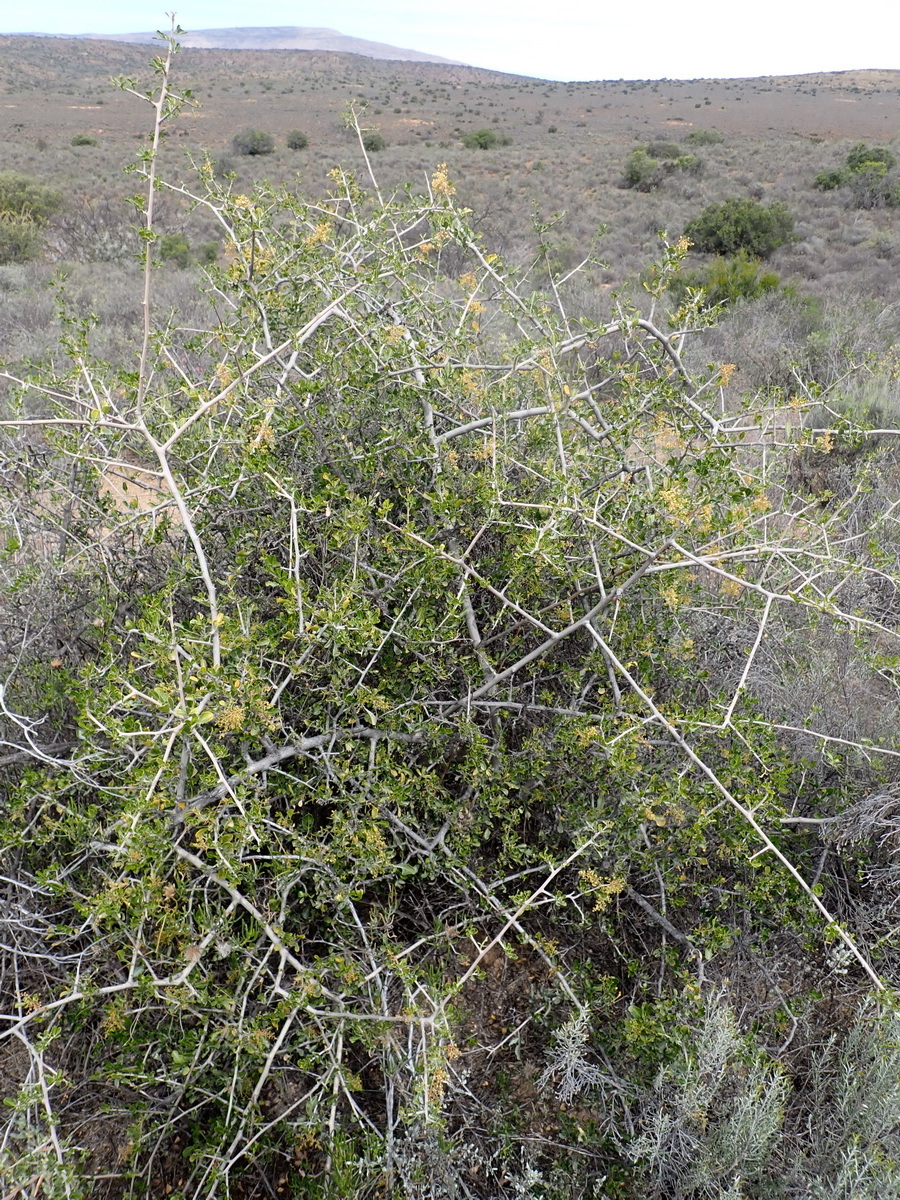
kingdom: Plantae
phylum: Tracheophyta
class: Magnoliopsida
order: Sapindales
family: Anacardiaceae
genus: Searsia
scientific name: Searsia longispina
